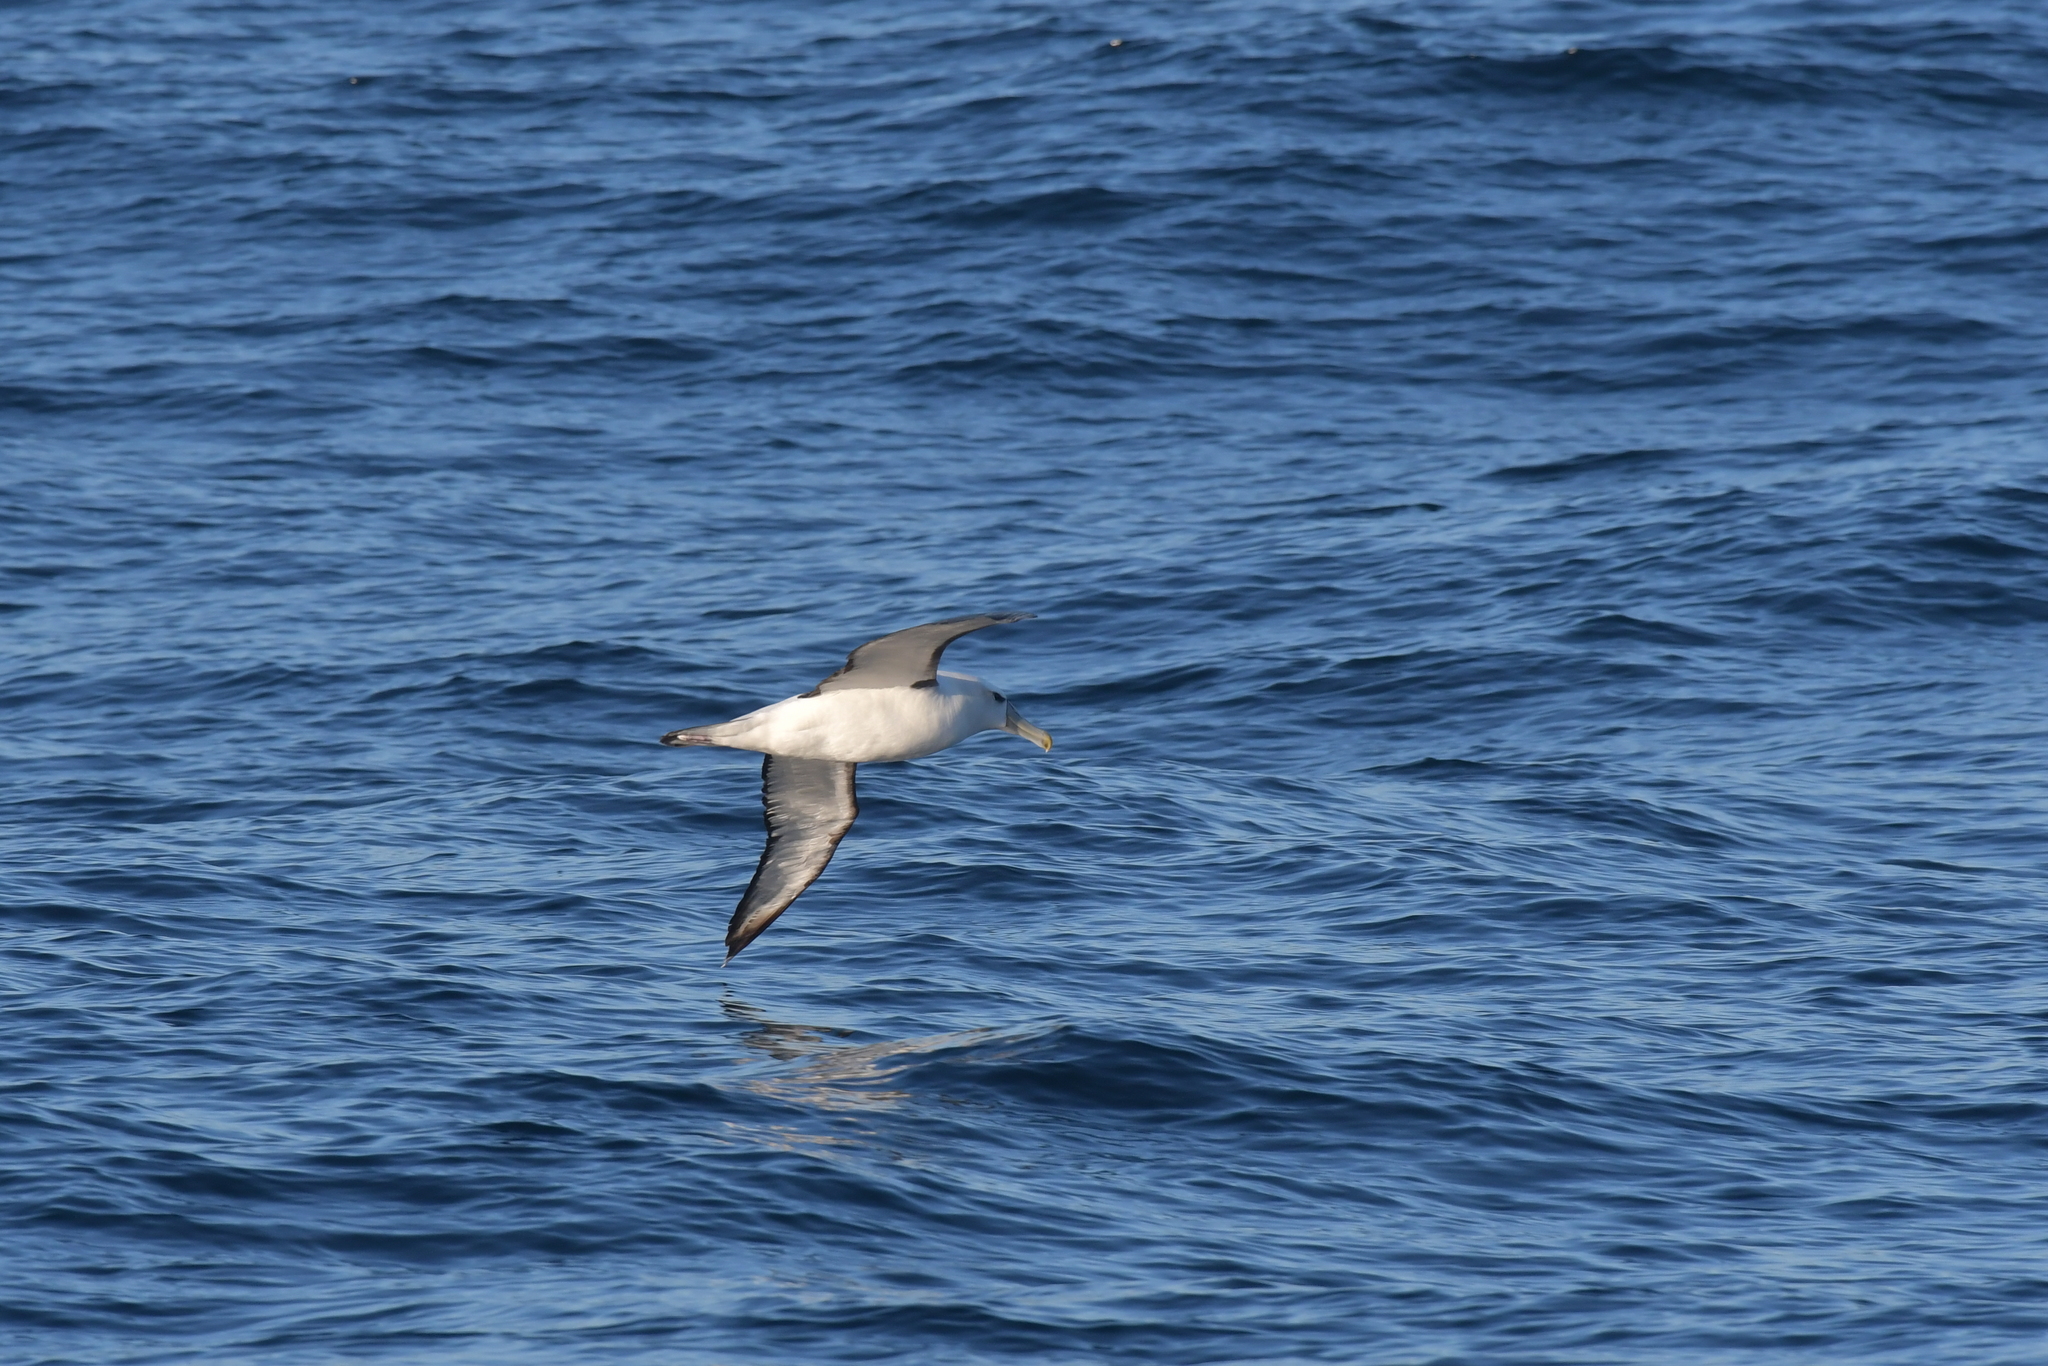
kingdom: Animalia
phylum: Chordata
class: Aves
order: Procellariiformes
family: Diomedeidae
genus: Thalassarche
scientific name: Thalassarche cauta
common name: Shy albatross
